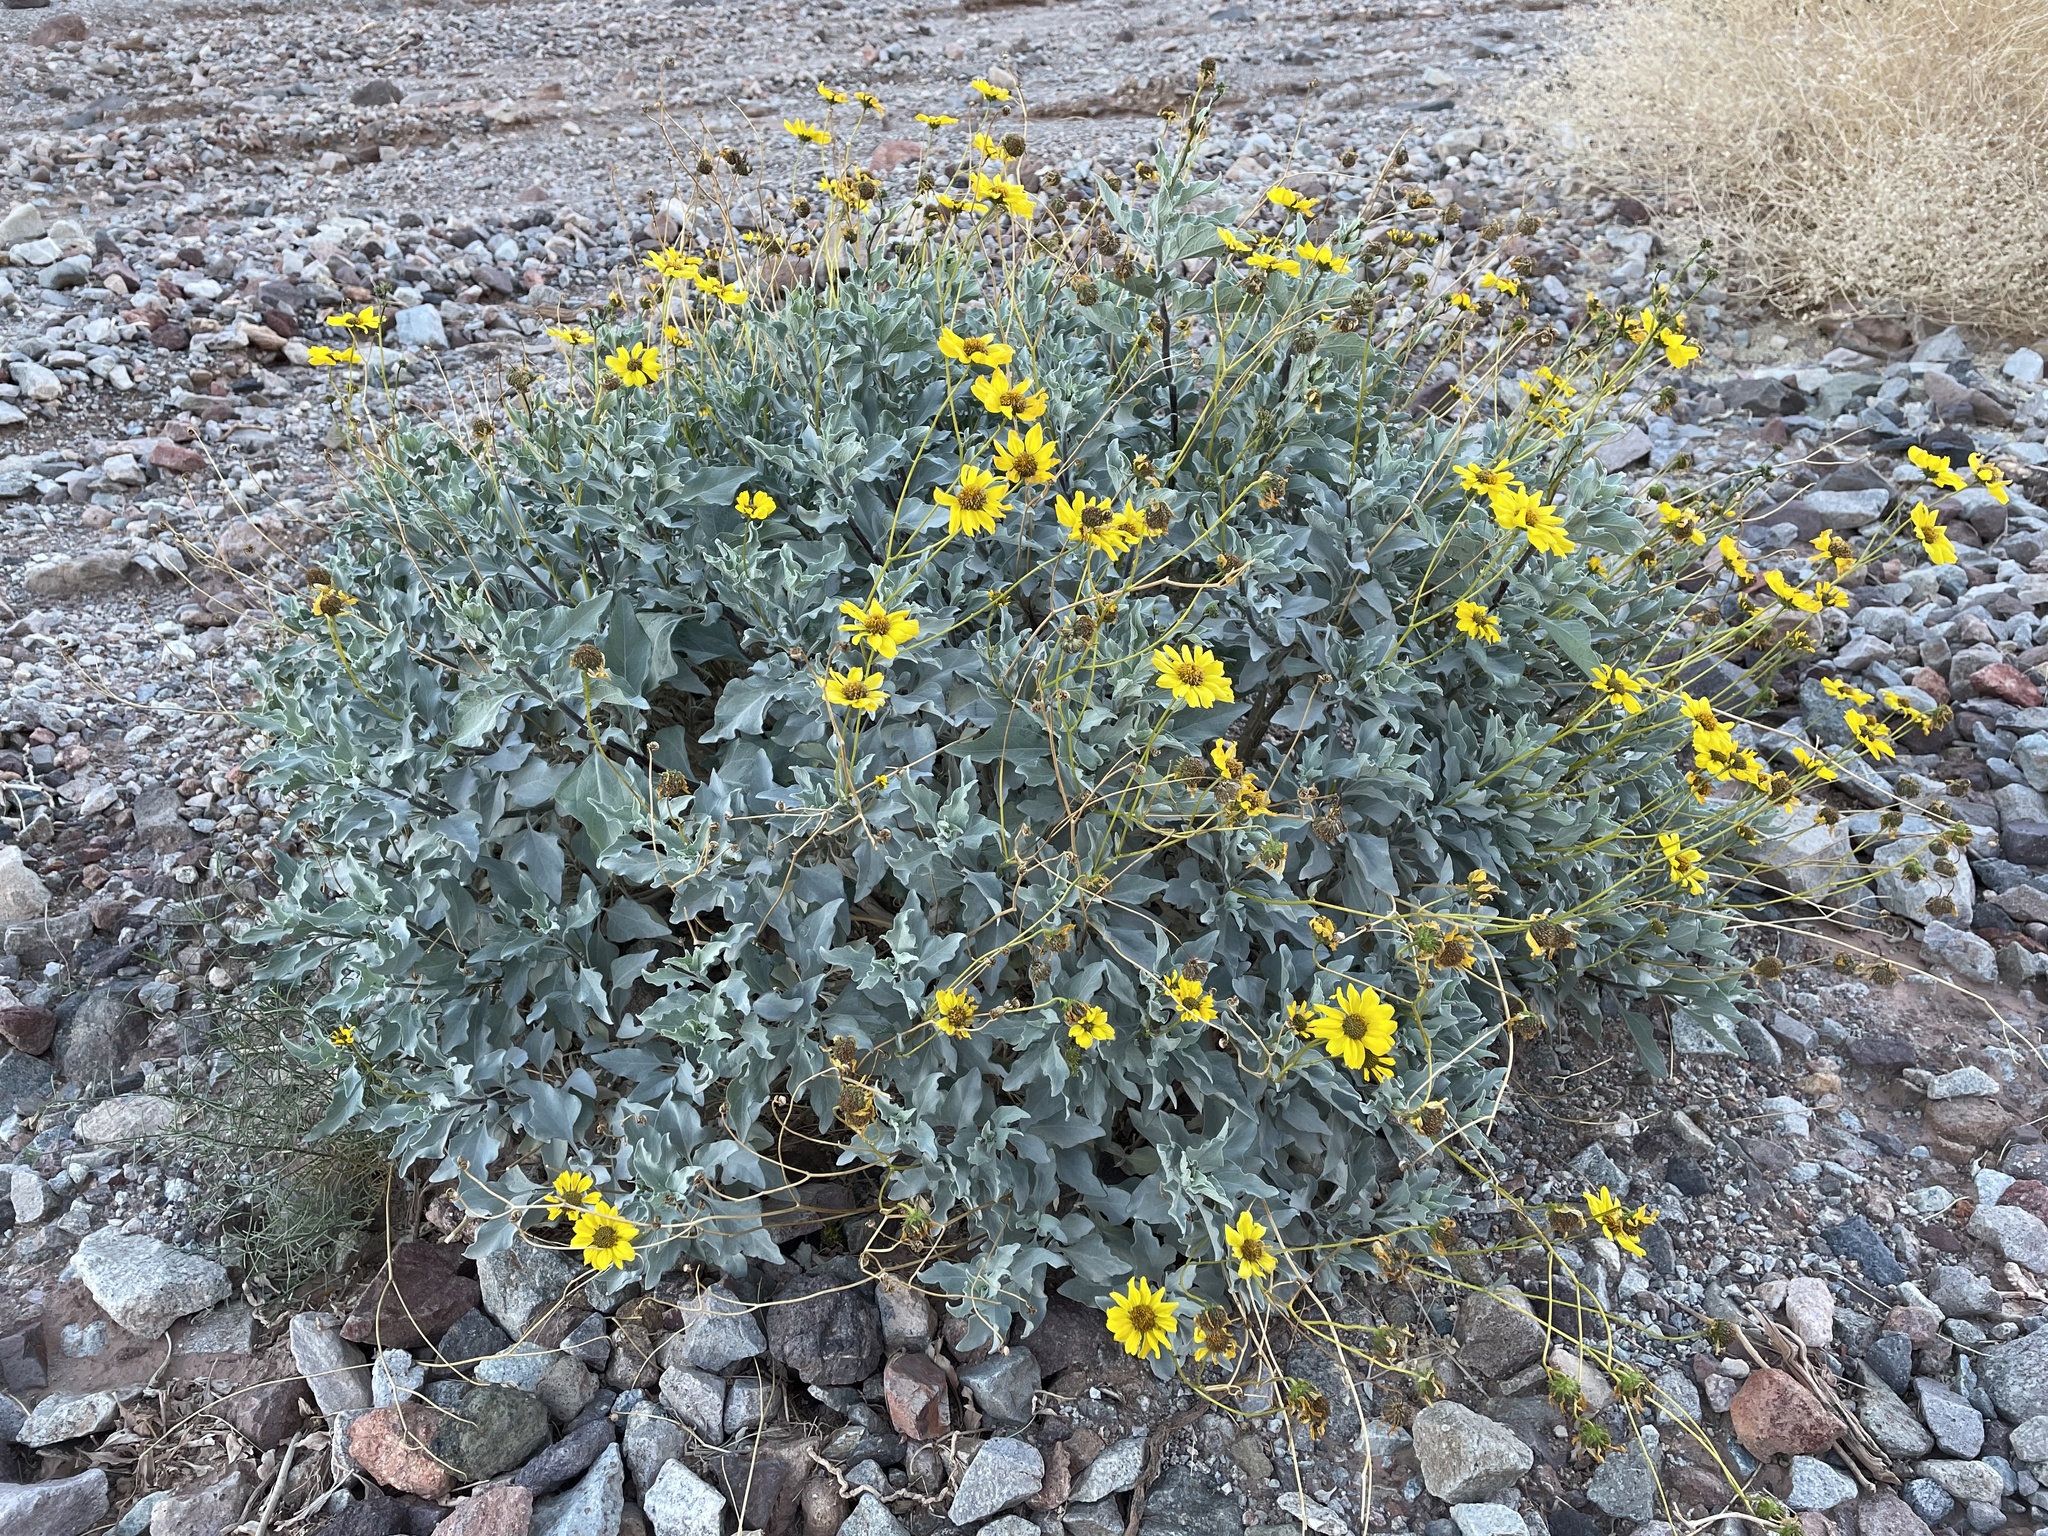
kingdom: Plantae
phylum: Tracheophyta
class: Magnoliopsida
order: Asterales
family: Asteraceae
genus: Encelia
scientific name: Encelia farinosa
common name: Brittlebush
